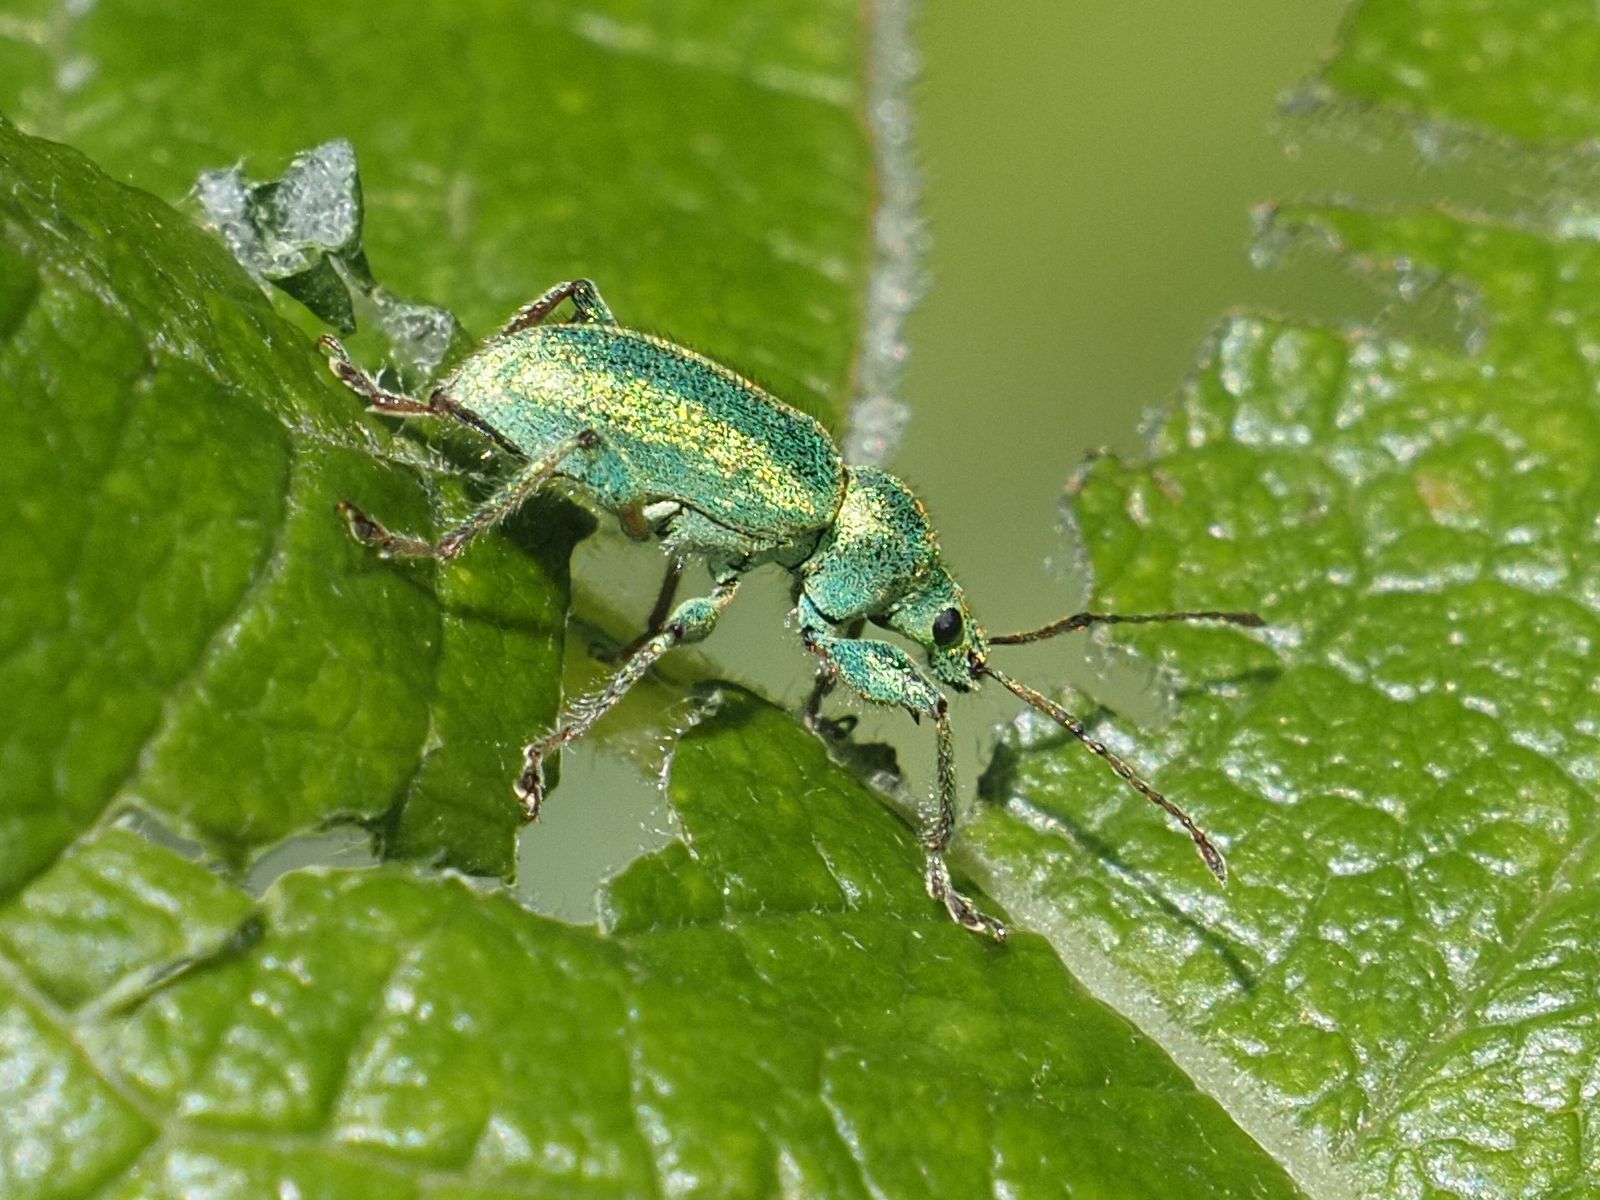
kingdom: Animalia
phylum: Arthropoda
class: Insecta
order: Coleoptera
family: Curculionidae
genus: Phyllobius
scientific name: Phyllobius arborator
